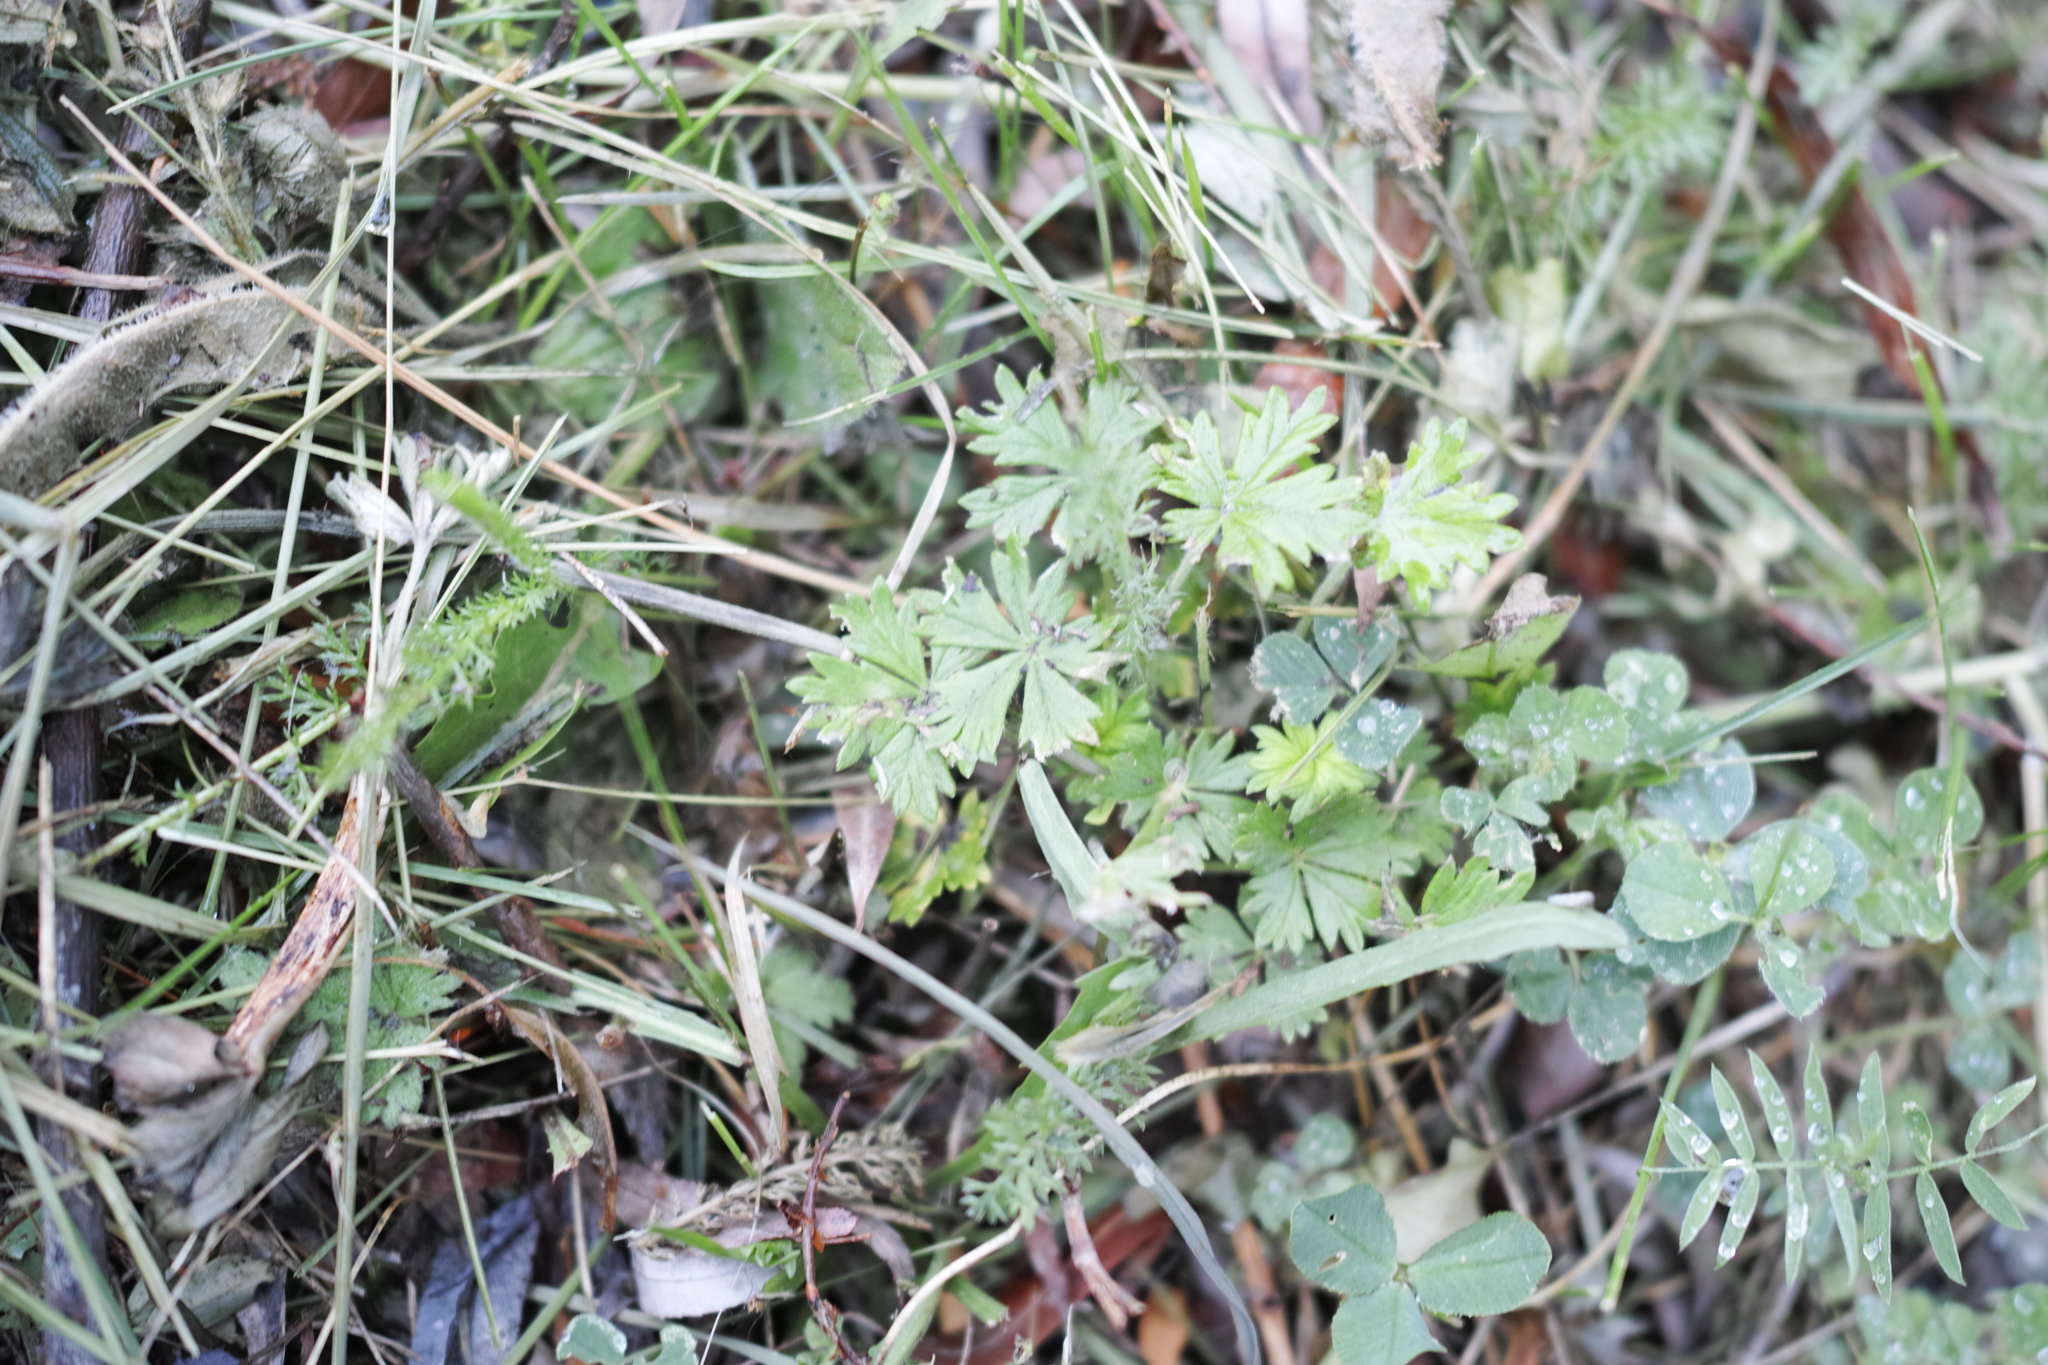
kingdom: Plantae
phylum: Tracheophyta
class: Magnoliopsida
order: Rosales
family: Rosaceae
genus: Potentilla
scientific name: Potentilla argentea
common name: Hoary cinquefoil
